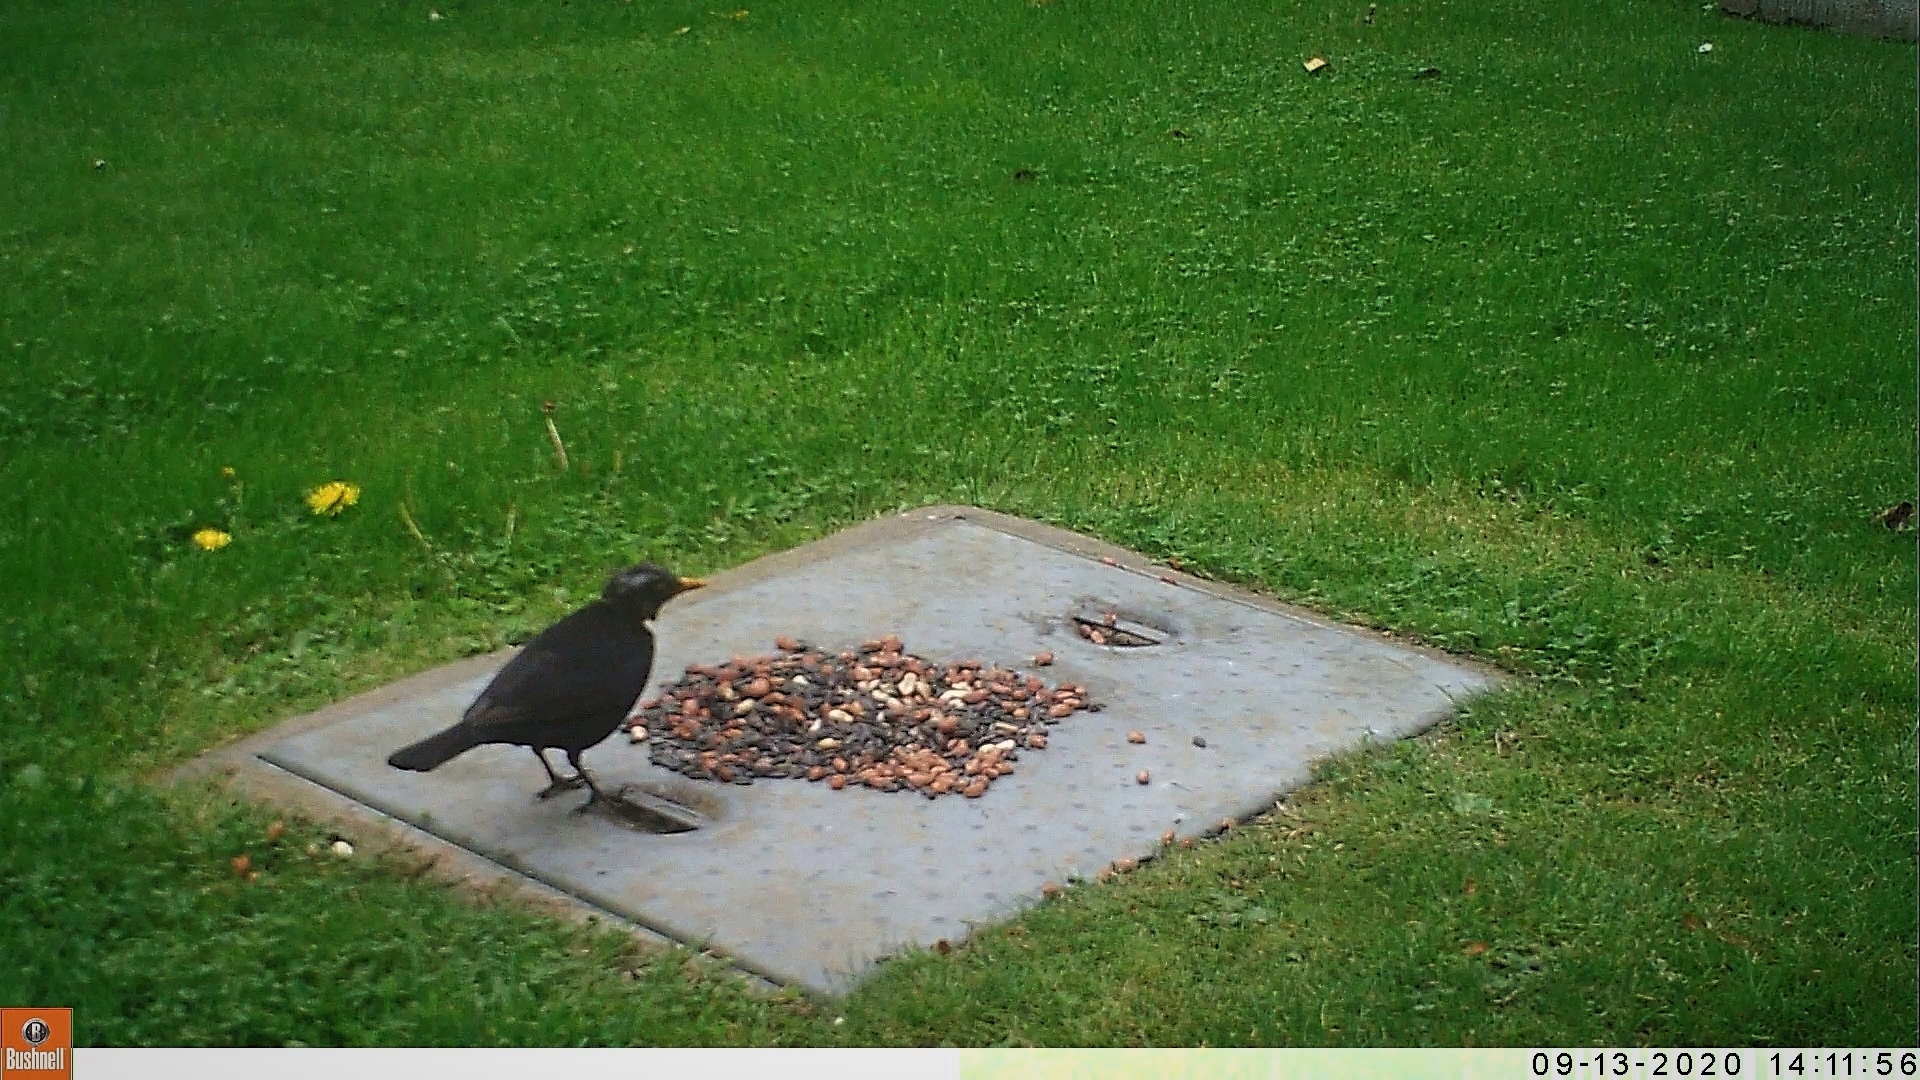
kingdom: Animalia
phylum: Chordata
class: Aves
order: Passeriformes
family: Turdidae
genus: Turdus
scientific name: Turdus merula
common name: Common blackbird
